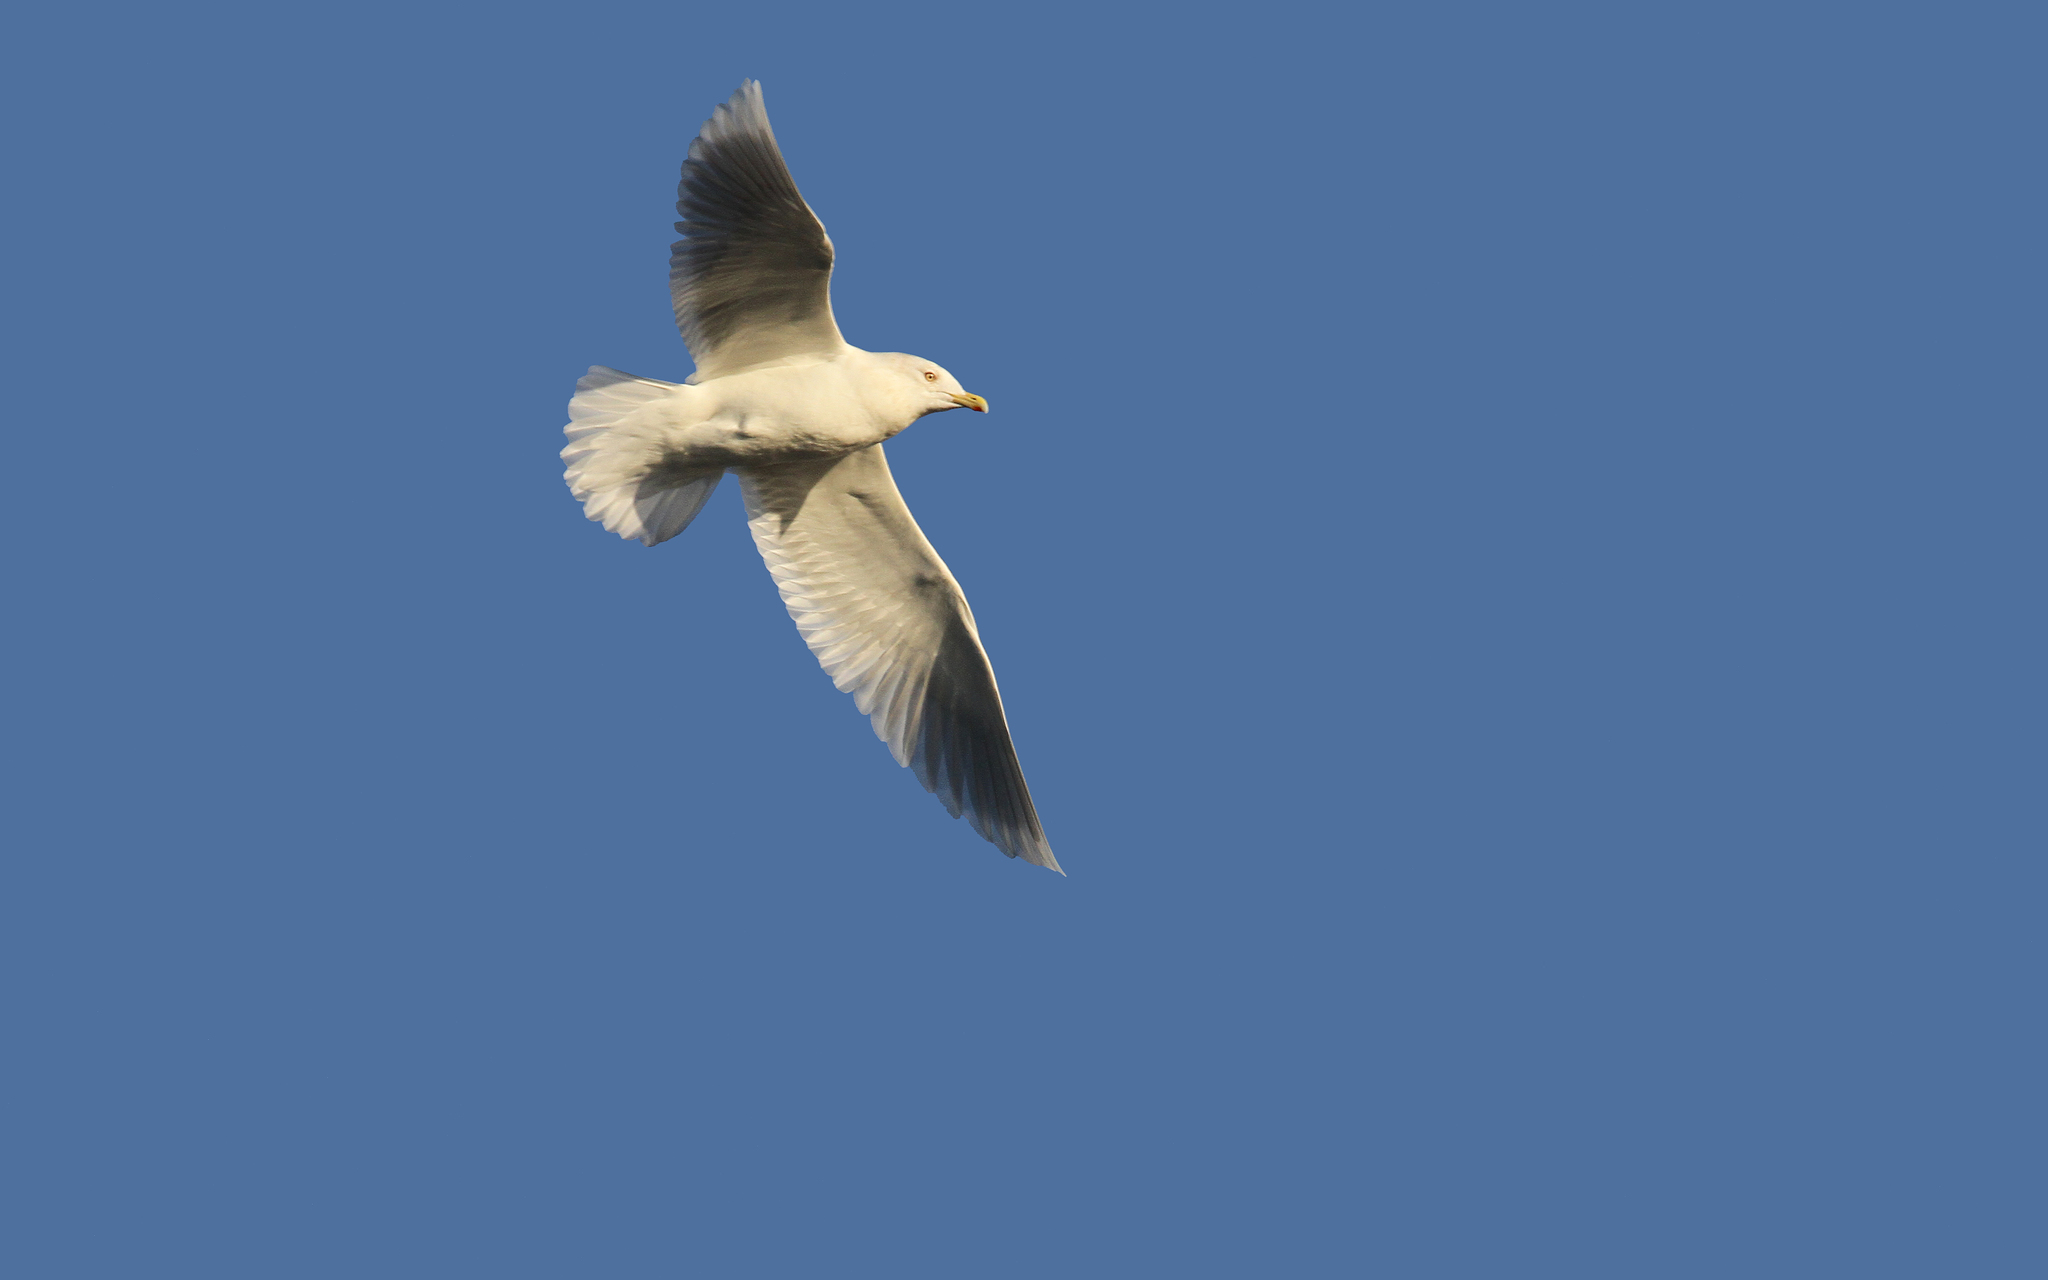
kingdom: Animalia
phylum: Chordata
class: Aves
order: Charadriiformes
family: Laridae
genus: Larus
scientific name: Larus glaucoides
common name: Iceland gull
